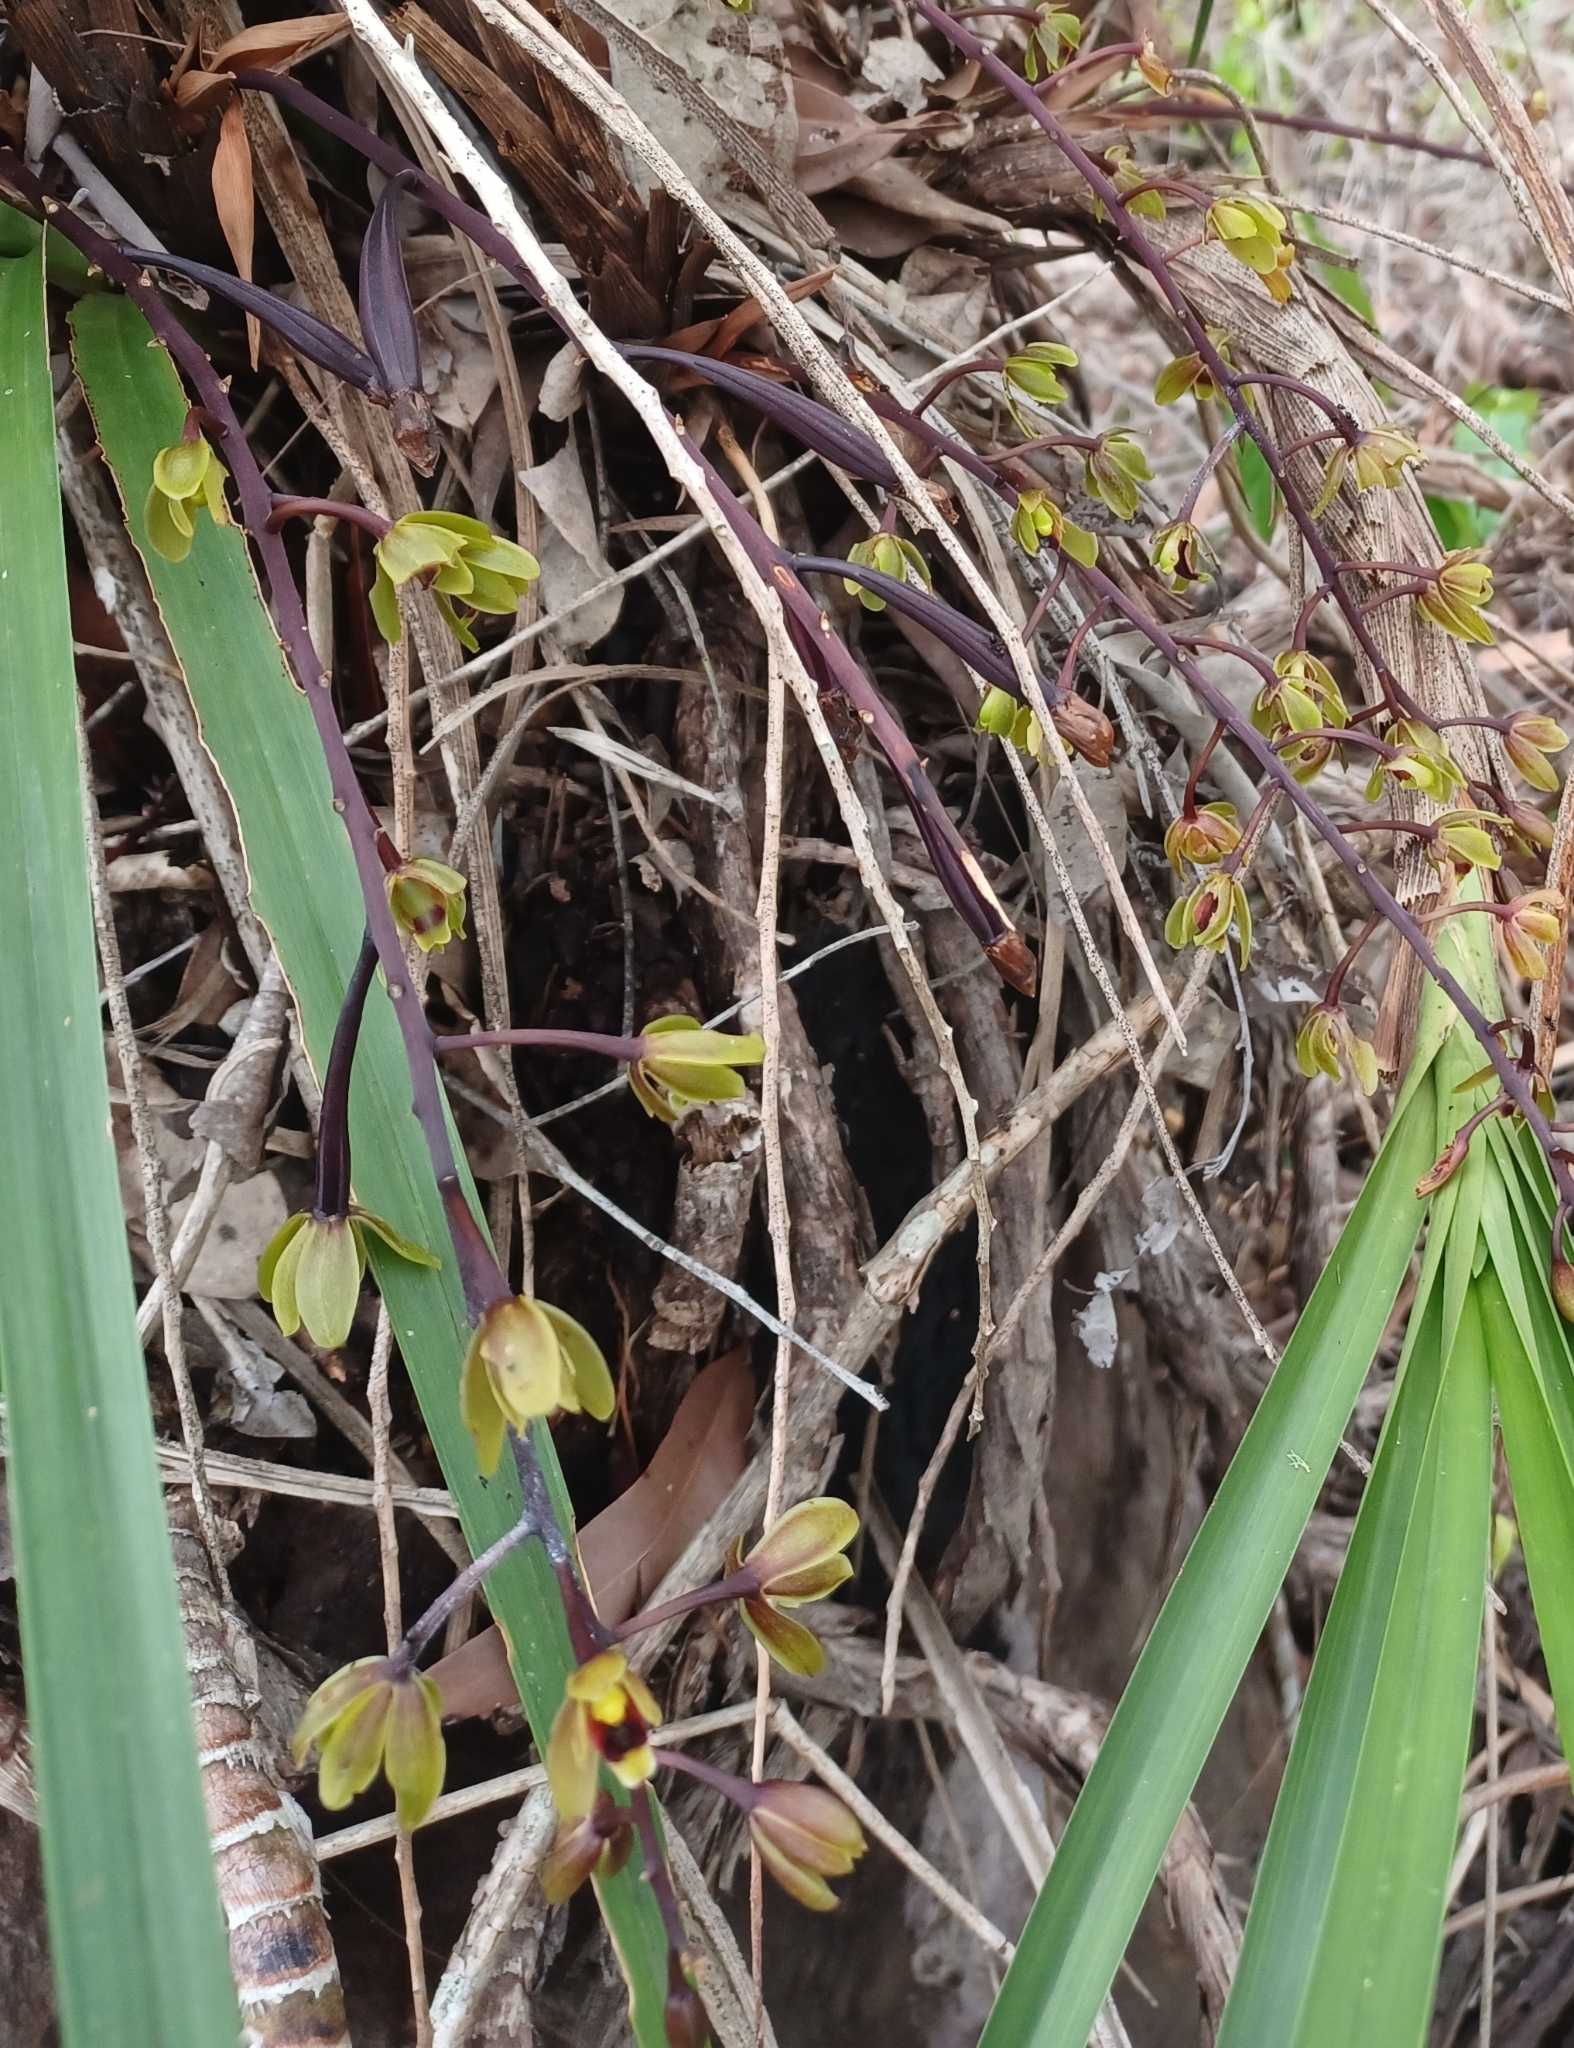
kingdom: Plantae
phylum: Tracheophyta
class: Liliopsida
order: Asparagales
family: Orchidaceae
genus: Cymbidium
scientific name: Cymbidium suave
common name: Snake orchid
